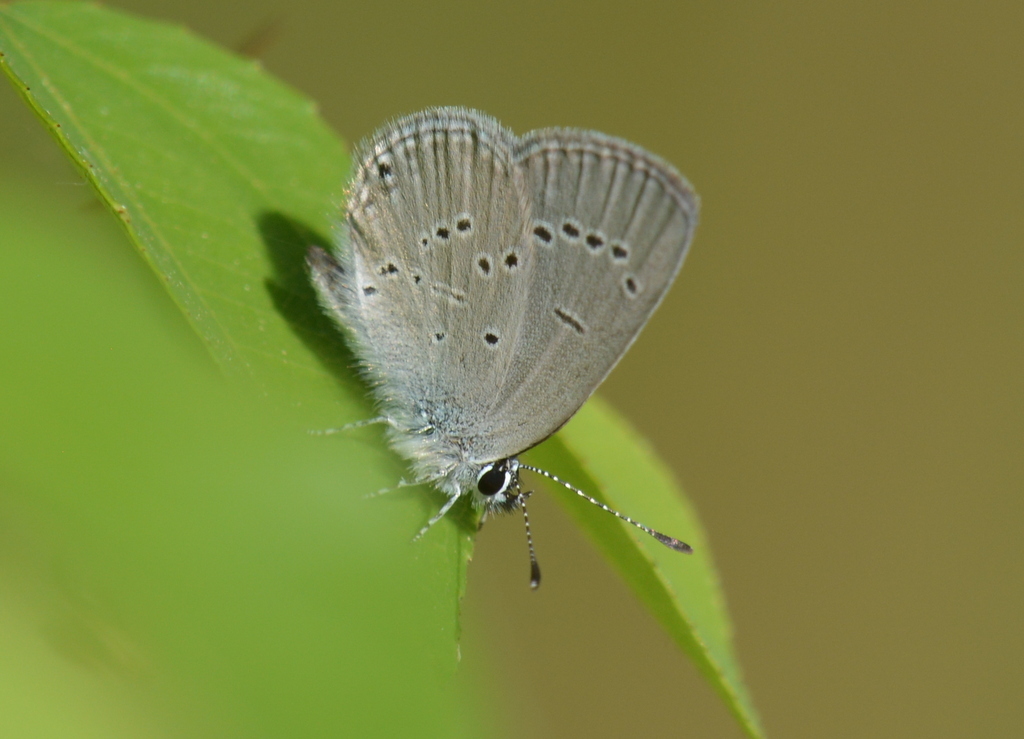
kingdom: Animalia
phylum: Arthropoda
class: Insecta
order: Lepidoptera
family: Lycaenidae
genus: Cupido
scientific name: Cupido minimus
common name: Small blue
